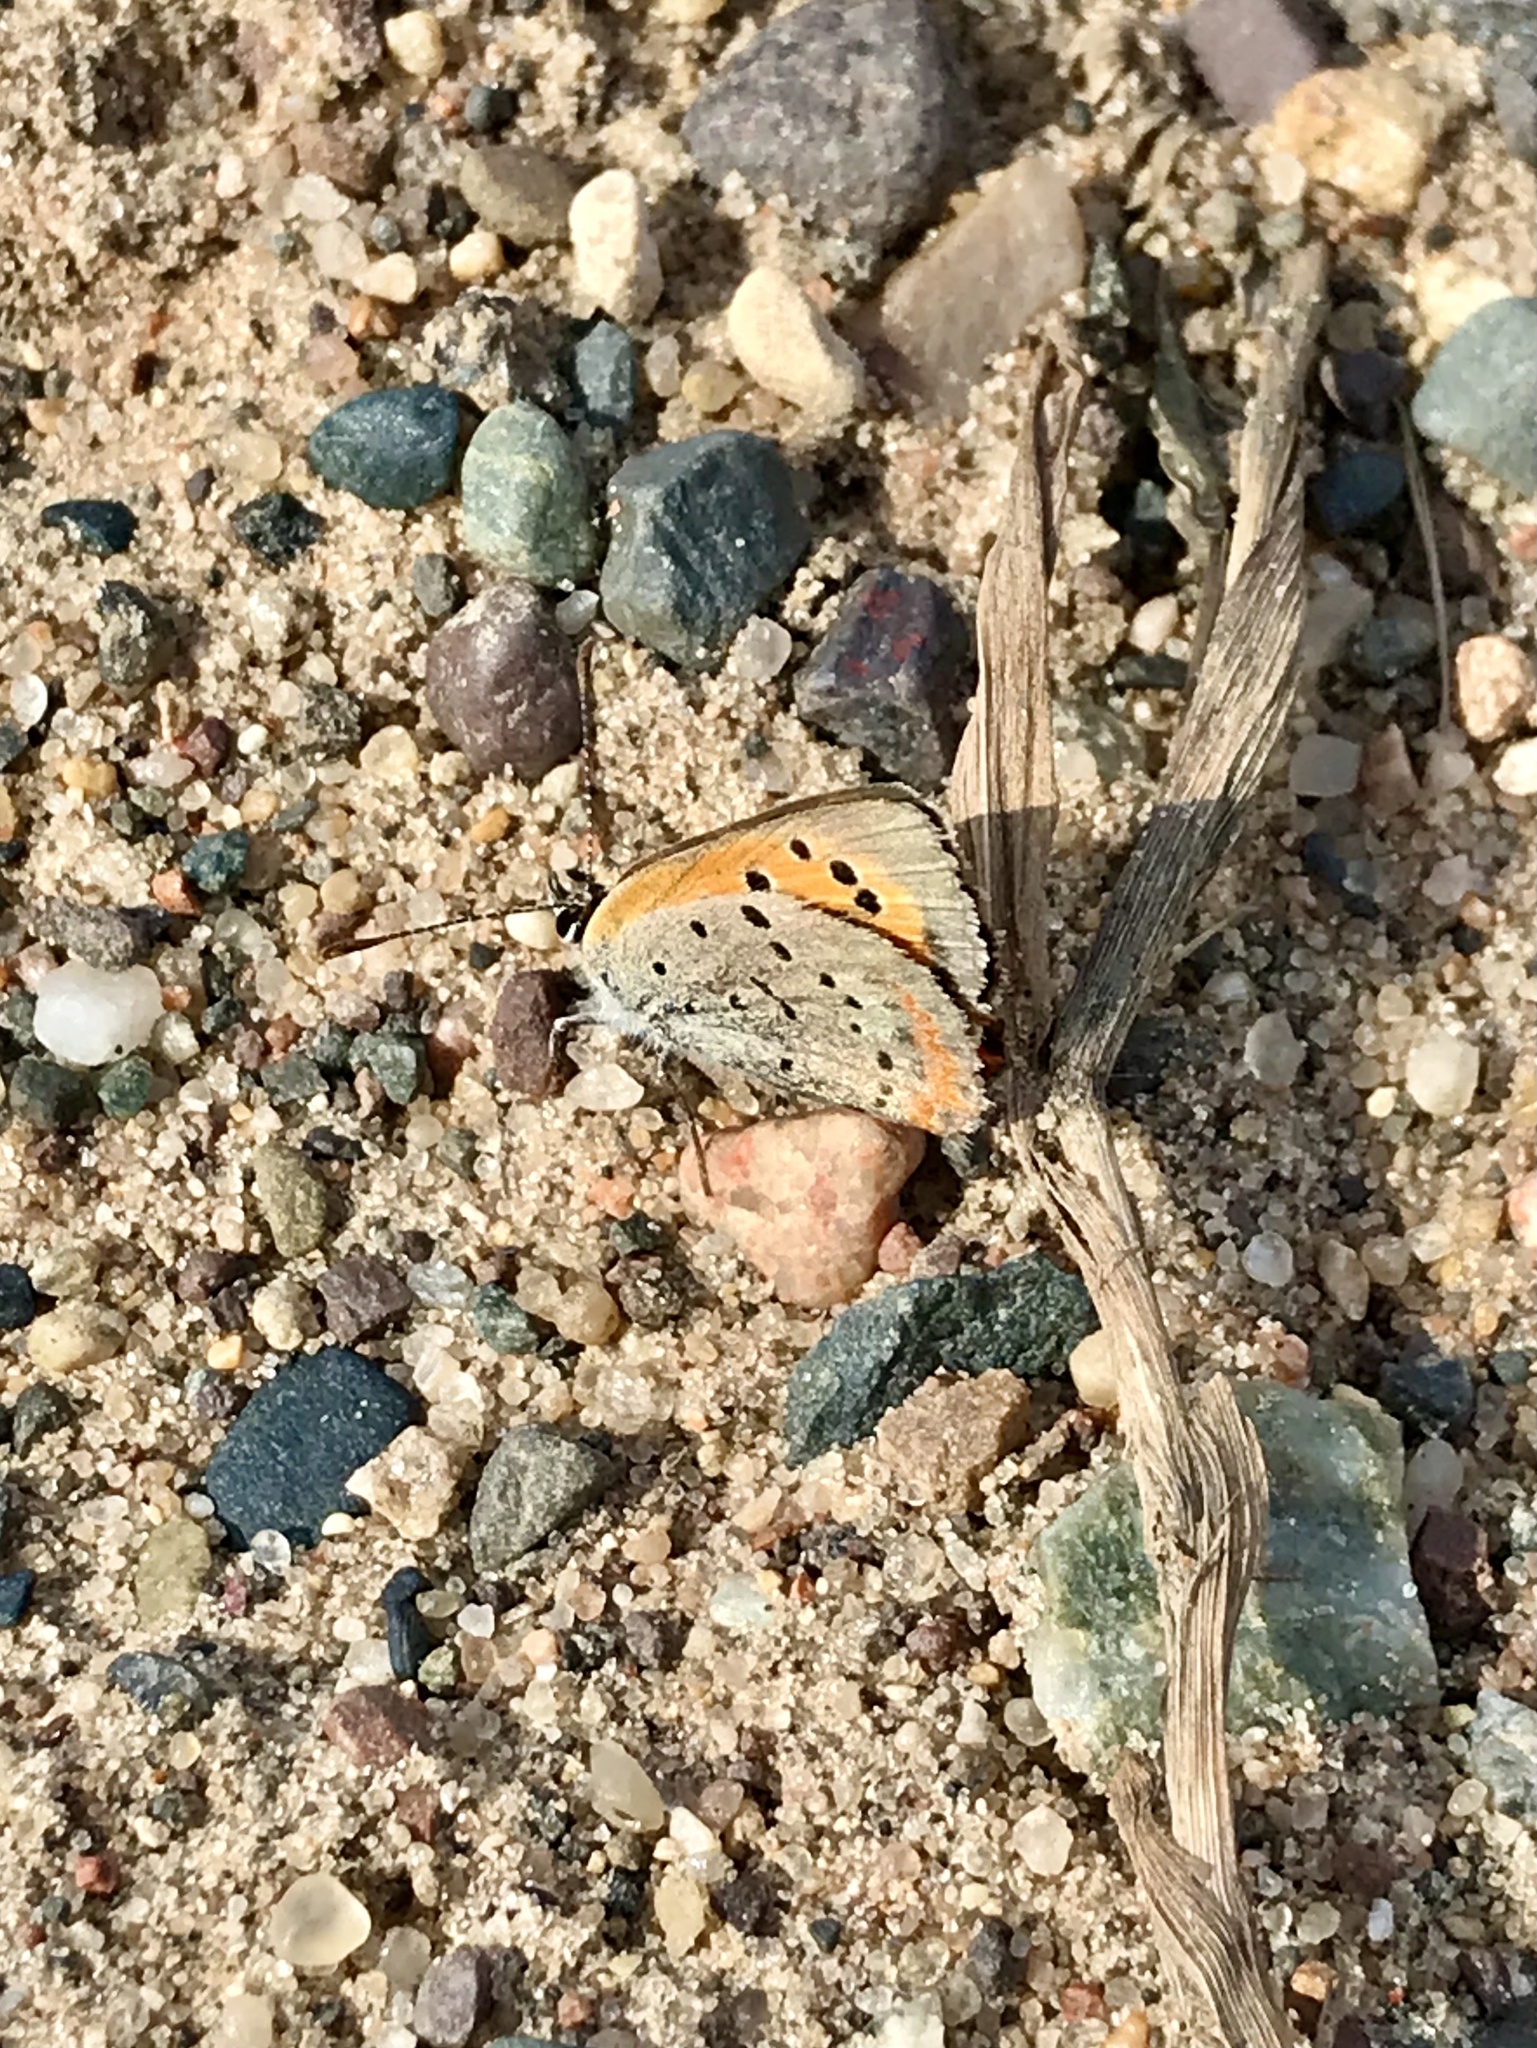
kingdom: Animalia
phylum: Arthropoda
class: Insecta
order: Lepidoptera
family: Lycaenidae
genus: Lycaena
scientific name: Lycaena hypophlaeas
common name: American copper
